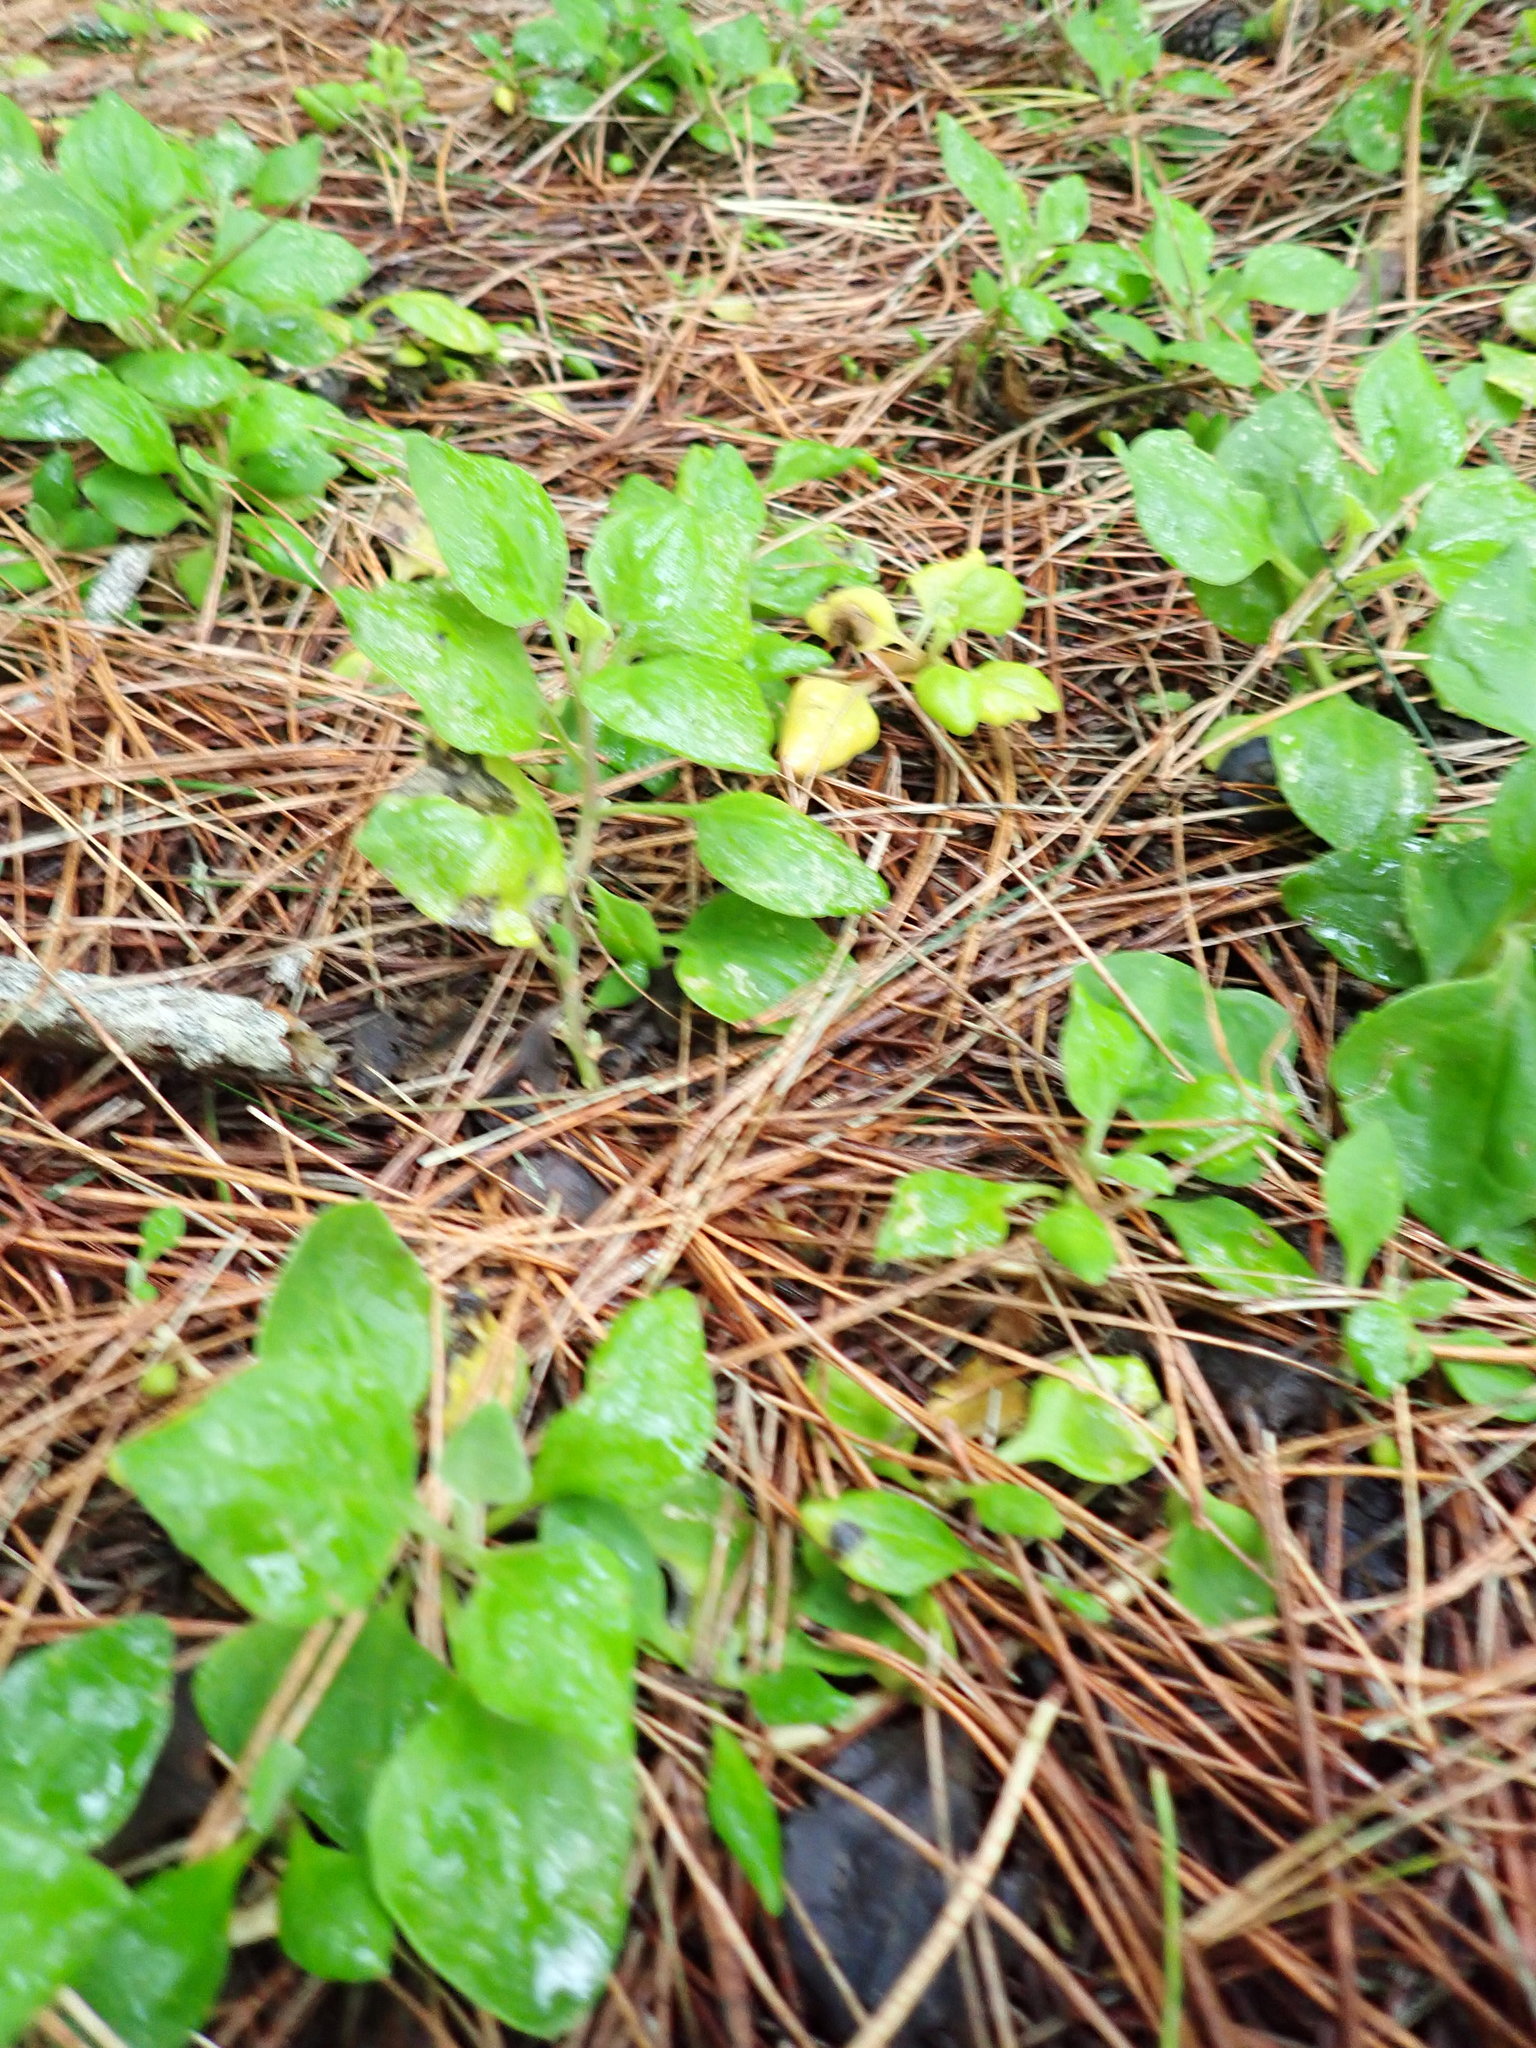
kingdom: Plantae
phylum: Tracheophyta
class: Magnoliopsida
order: Caryophyllales
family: Aizoaceae
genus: Tetragonia
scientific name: Tetragonia implexicoma
